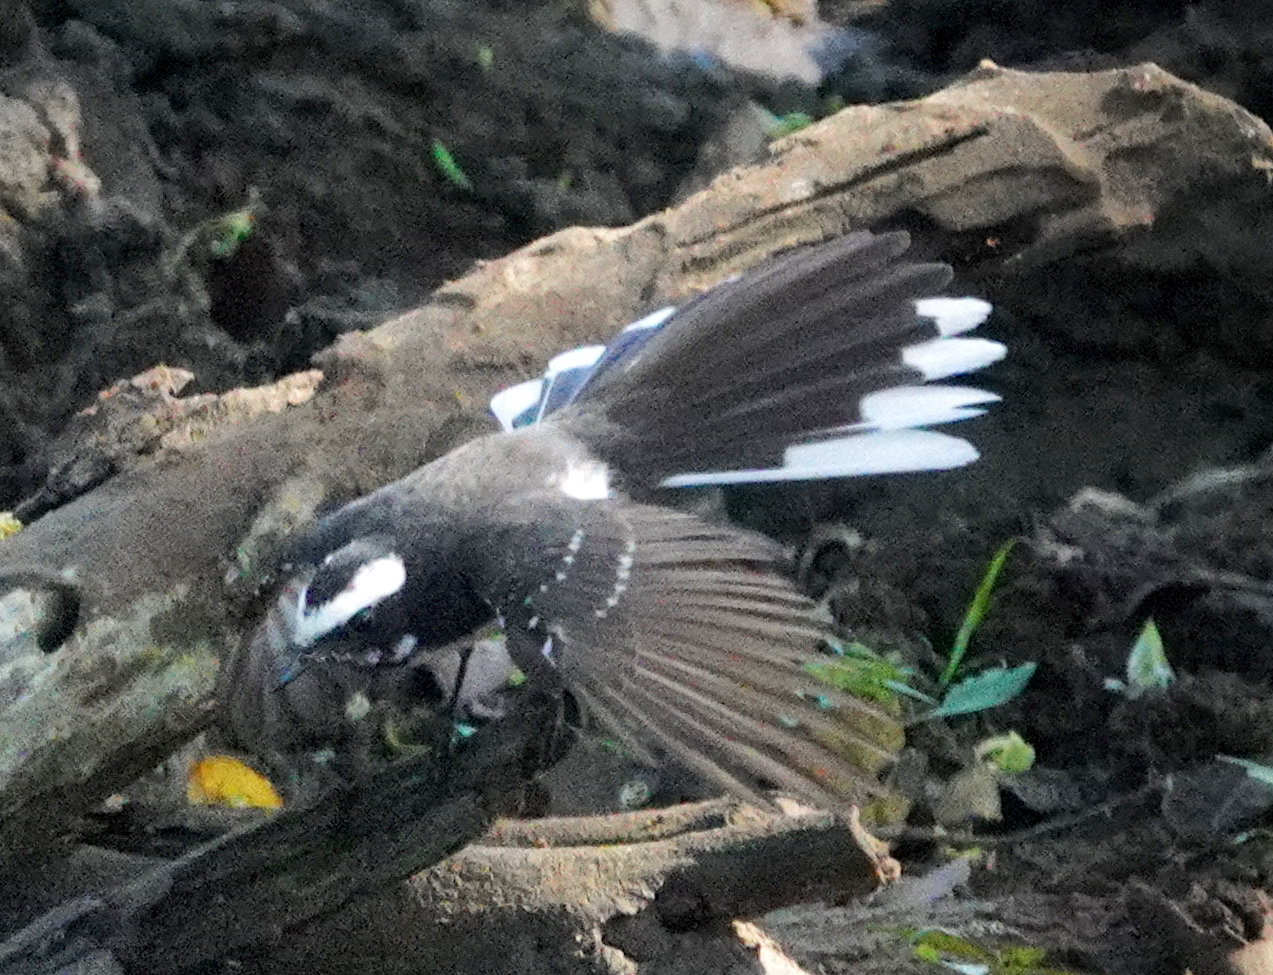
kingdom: Animalia
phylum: Chordata
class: Aves
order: Passeriformes
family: Rhipiduridae
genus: Rhipidura
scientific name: Rhipidura aureola
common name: White-browed fantail
